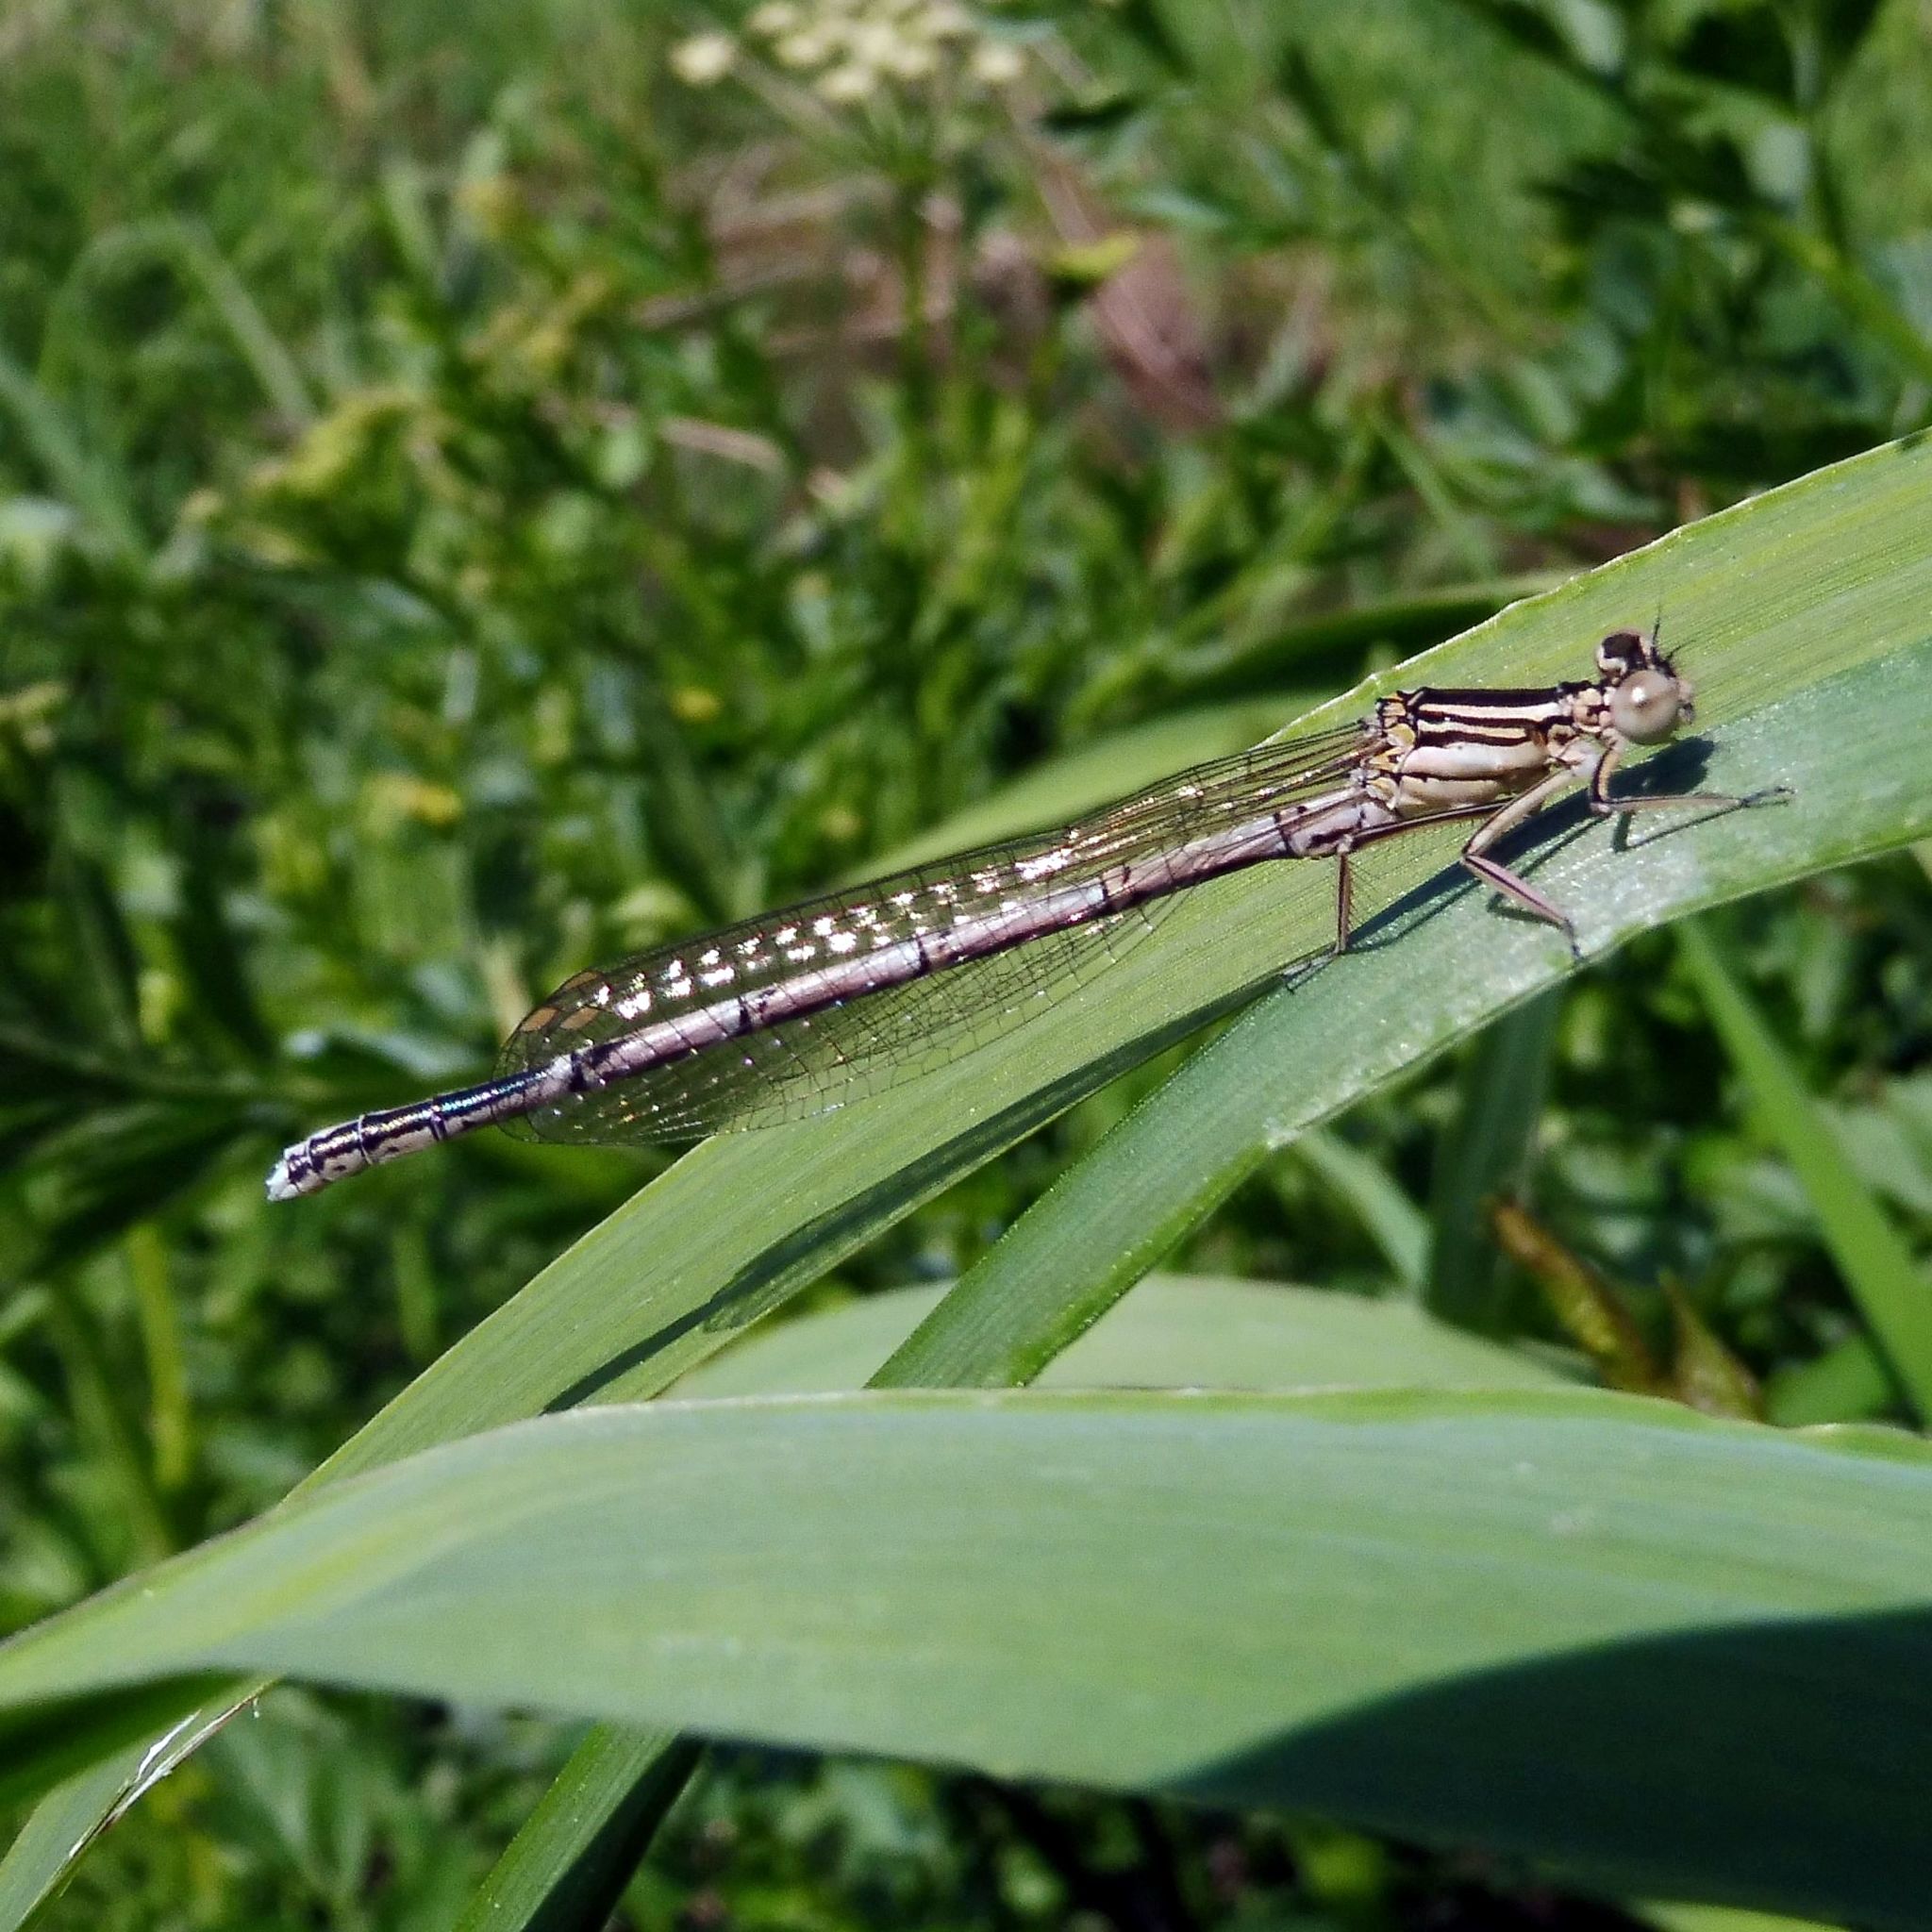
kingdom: Animalia
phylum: Arthropoda
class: Insecta
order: Odonata
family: Platycnemididae
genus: Platycnemis
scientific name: Platycnemis pennipes
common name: White-legged damselfly
